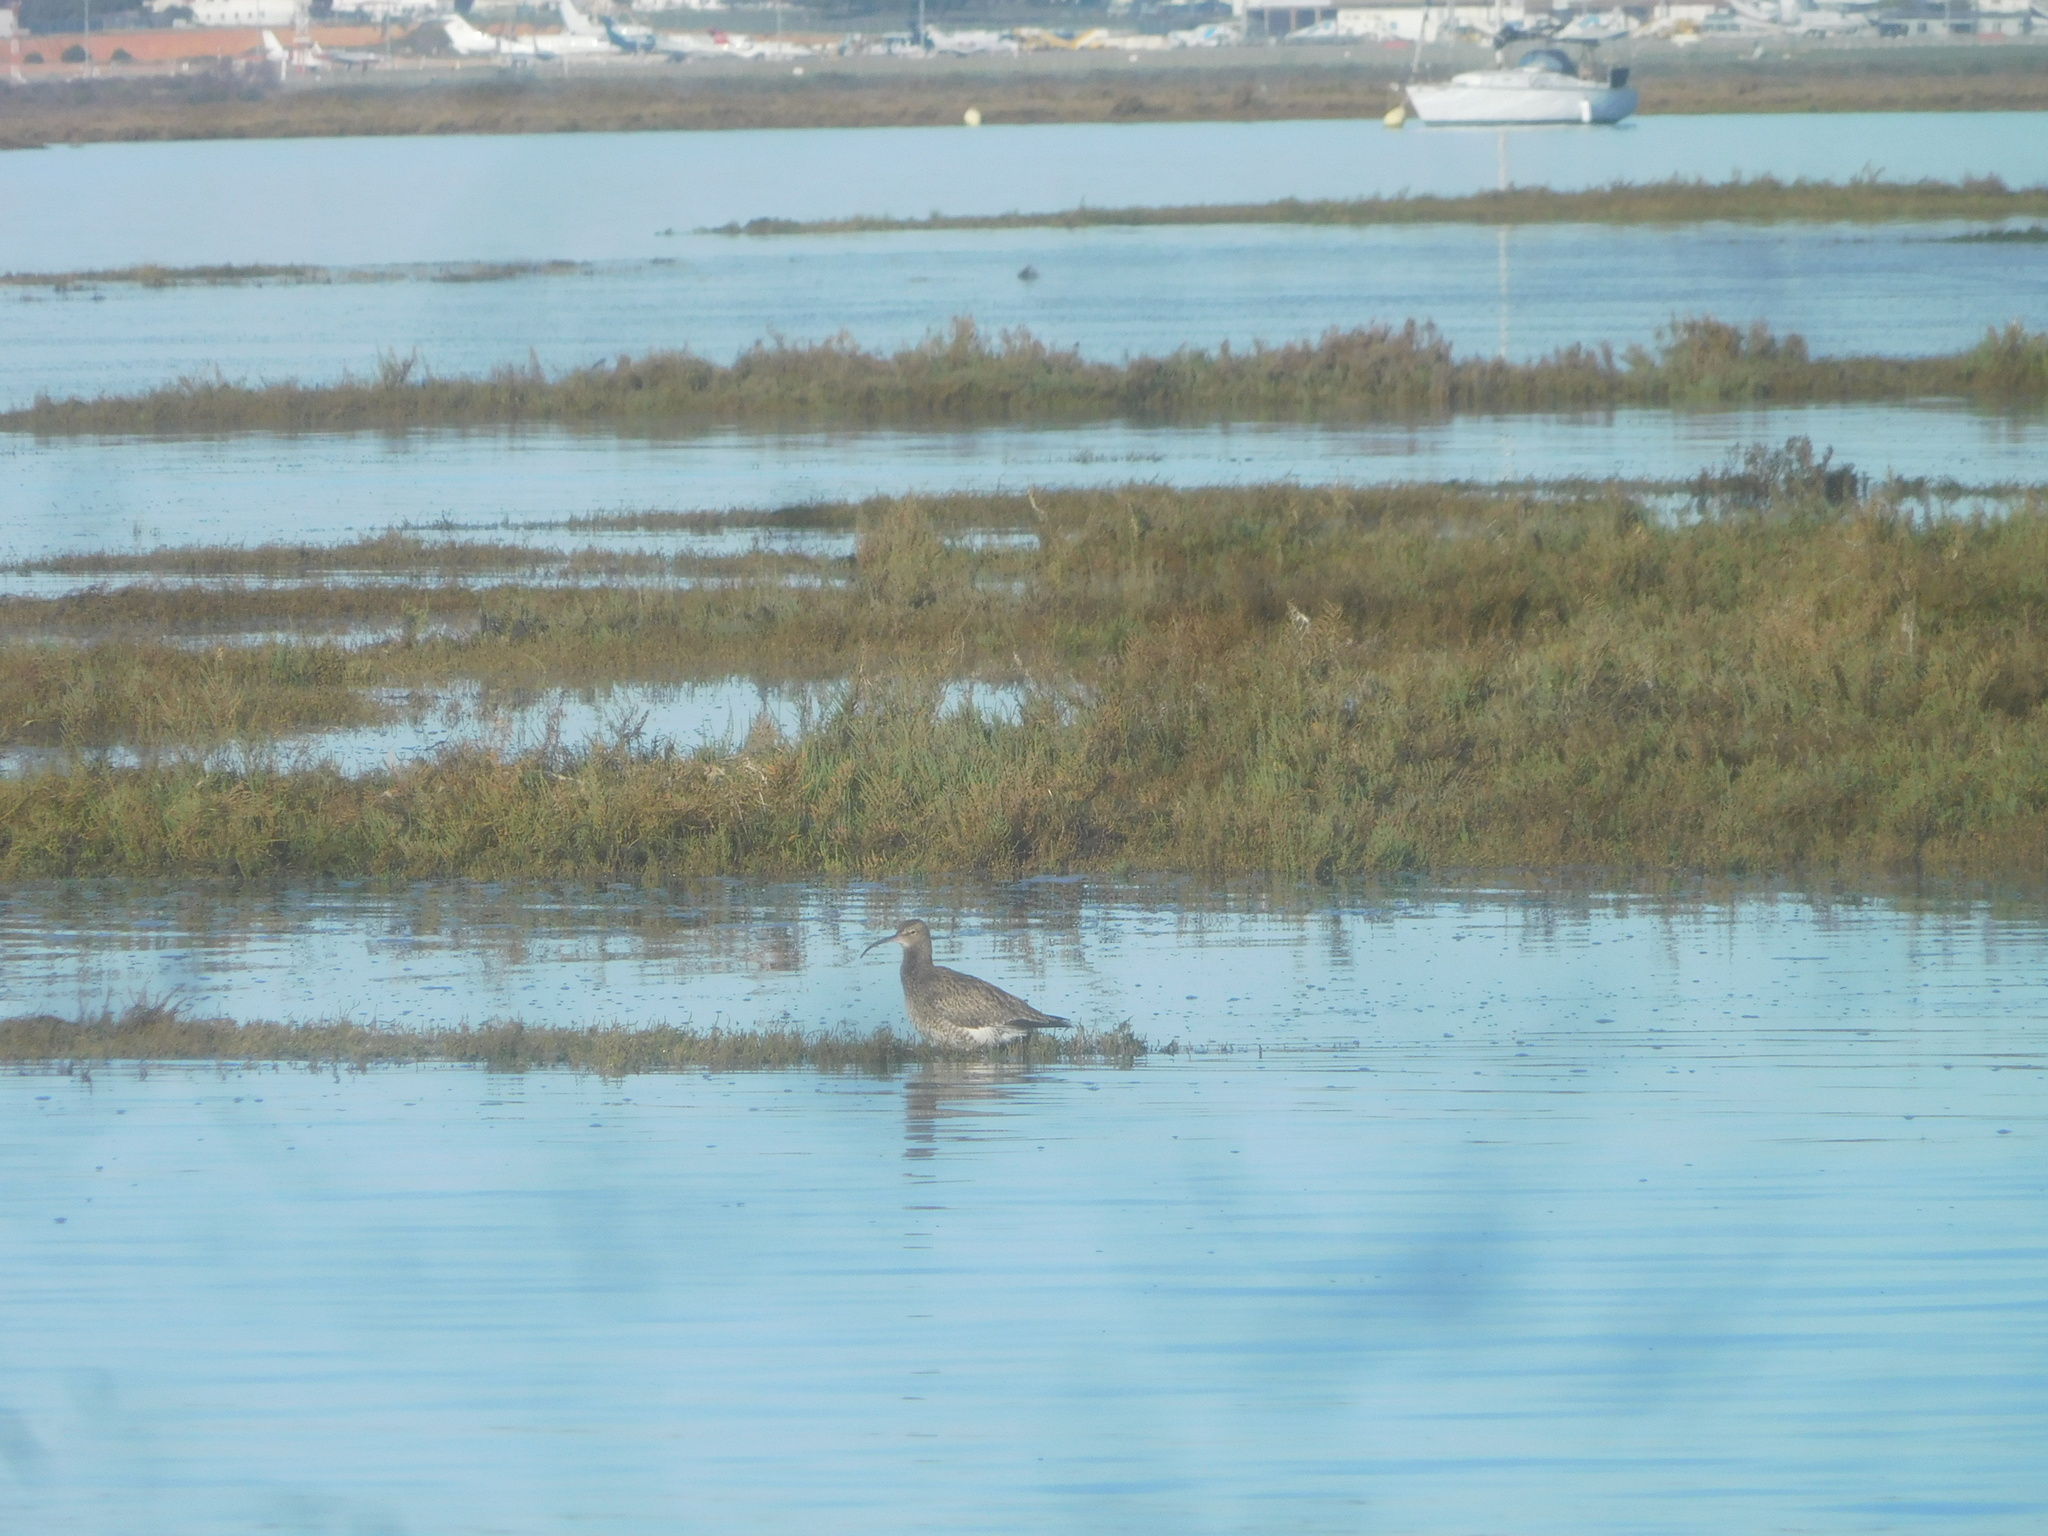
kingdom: Animalia
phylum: Chordata
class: Aves
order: Charadriiformes
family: Scolopacidae
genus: Numenius
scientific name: Numenius phaeopus
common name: Whimbrel
